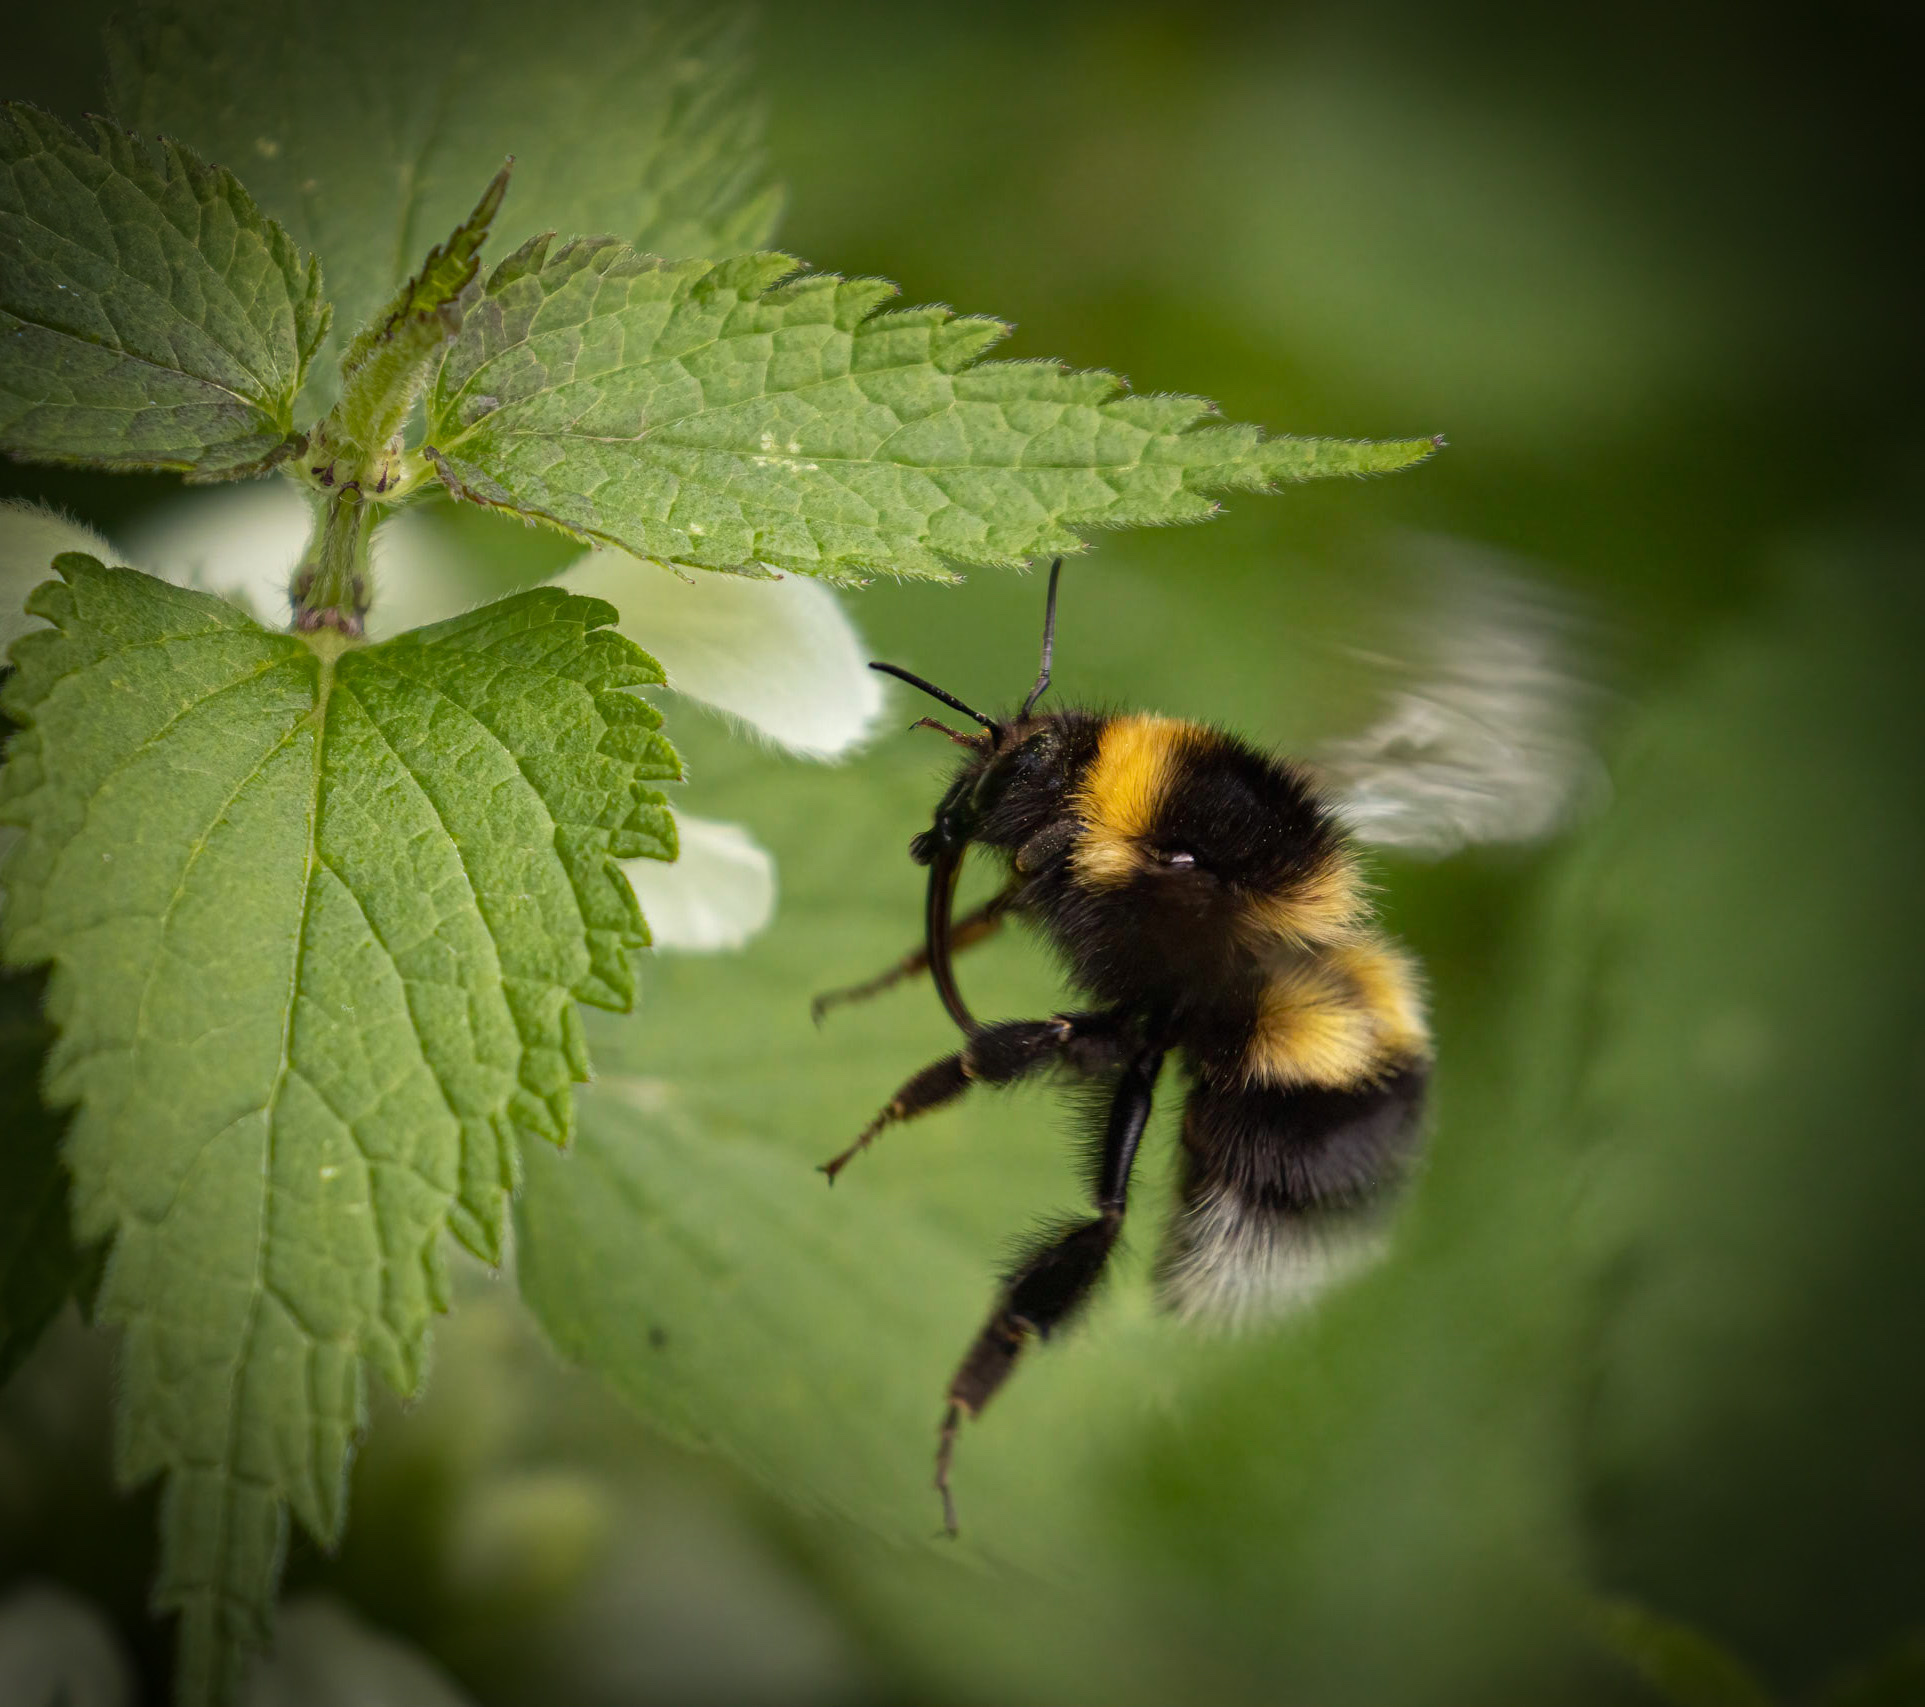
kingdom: Animalia
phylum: Arthropoda
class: Insecta
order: Hymenoptera
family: Apidae
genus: Bombus
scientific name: Bombus hortorum
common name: Garden bumblebee
